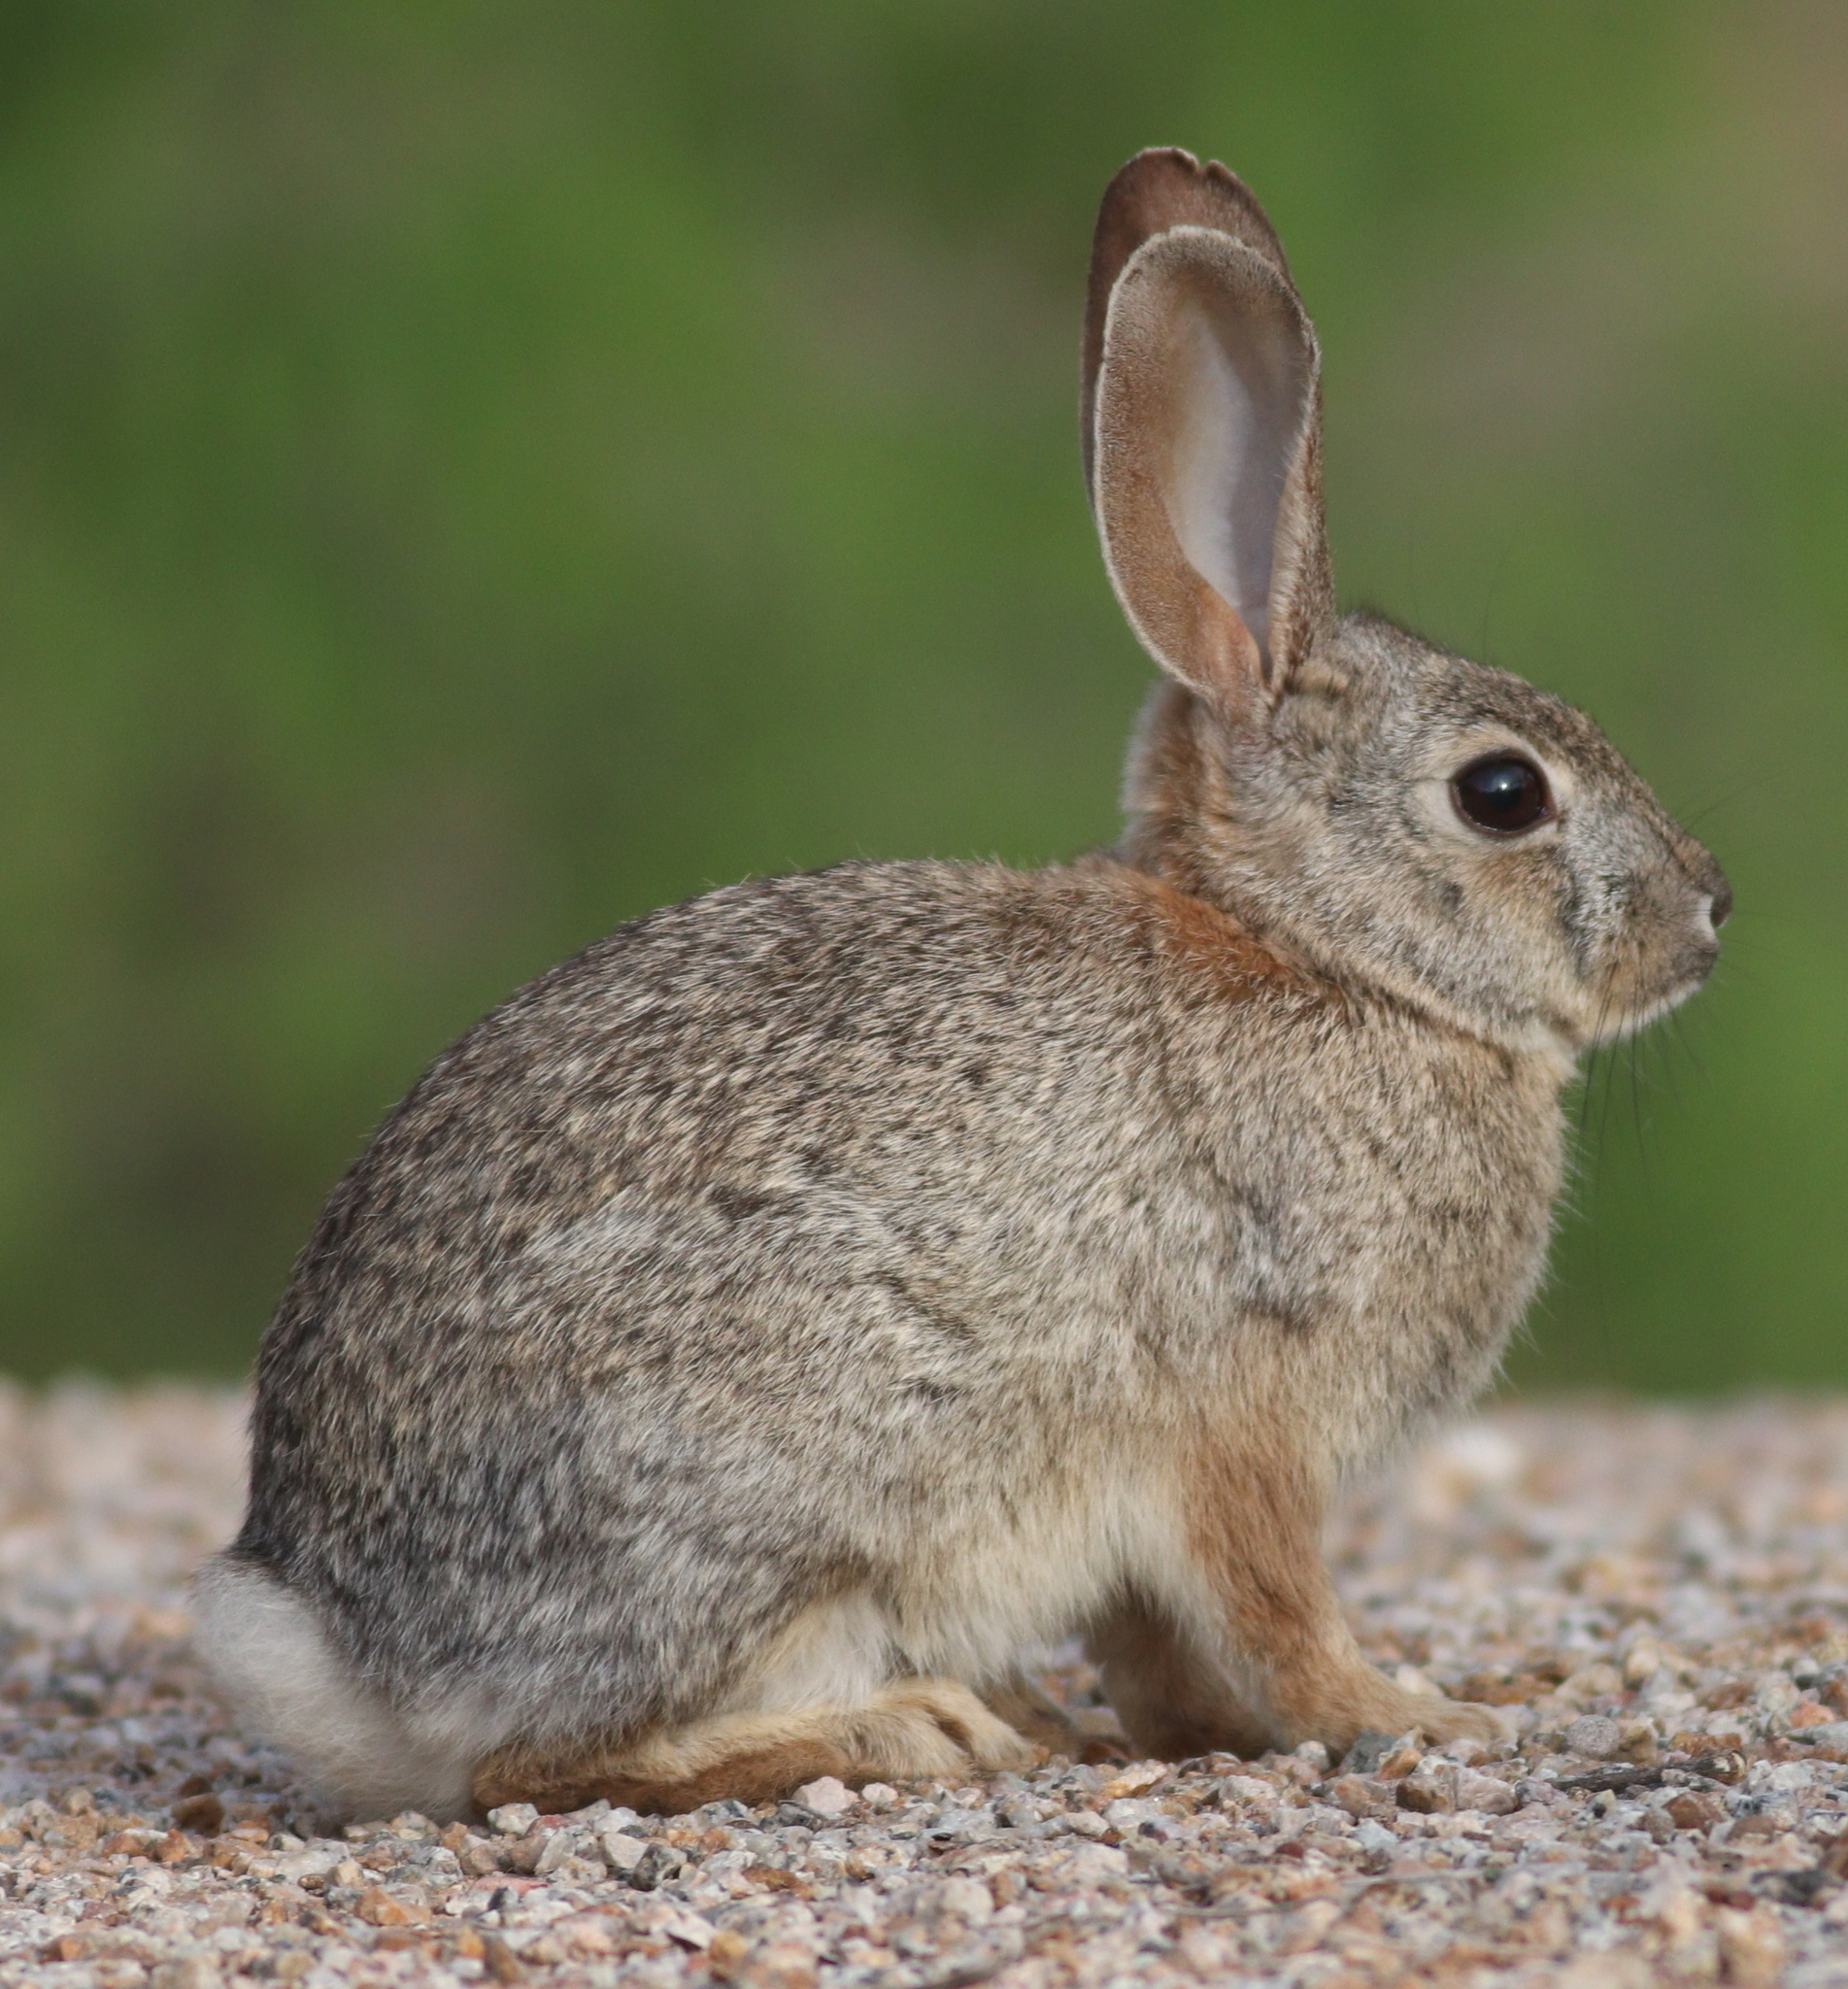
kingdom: Animalia
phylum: Chordata
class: Mammalia
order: Lagomorpha
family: Leporidae
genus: Sylvilagus
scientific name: Sylvilagus audubonii
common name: Desert cottontail
